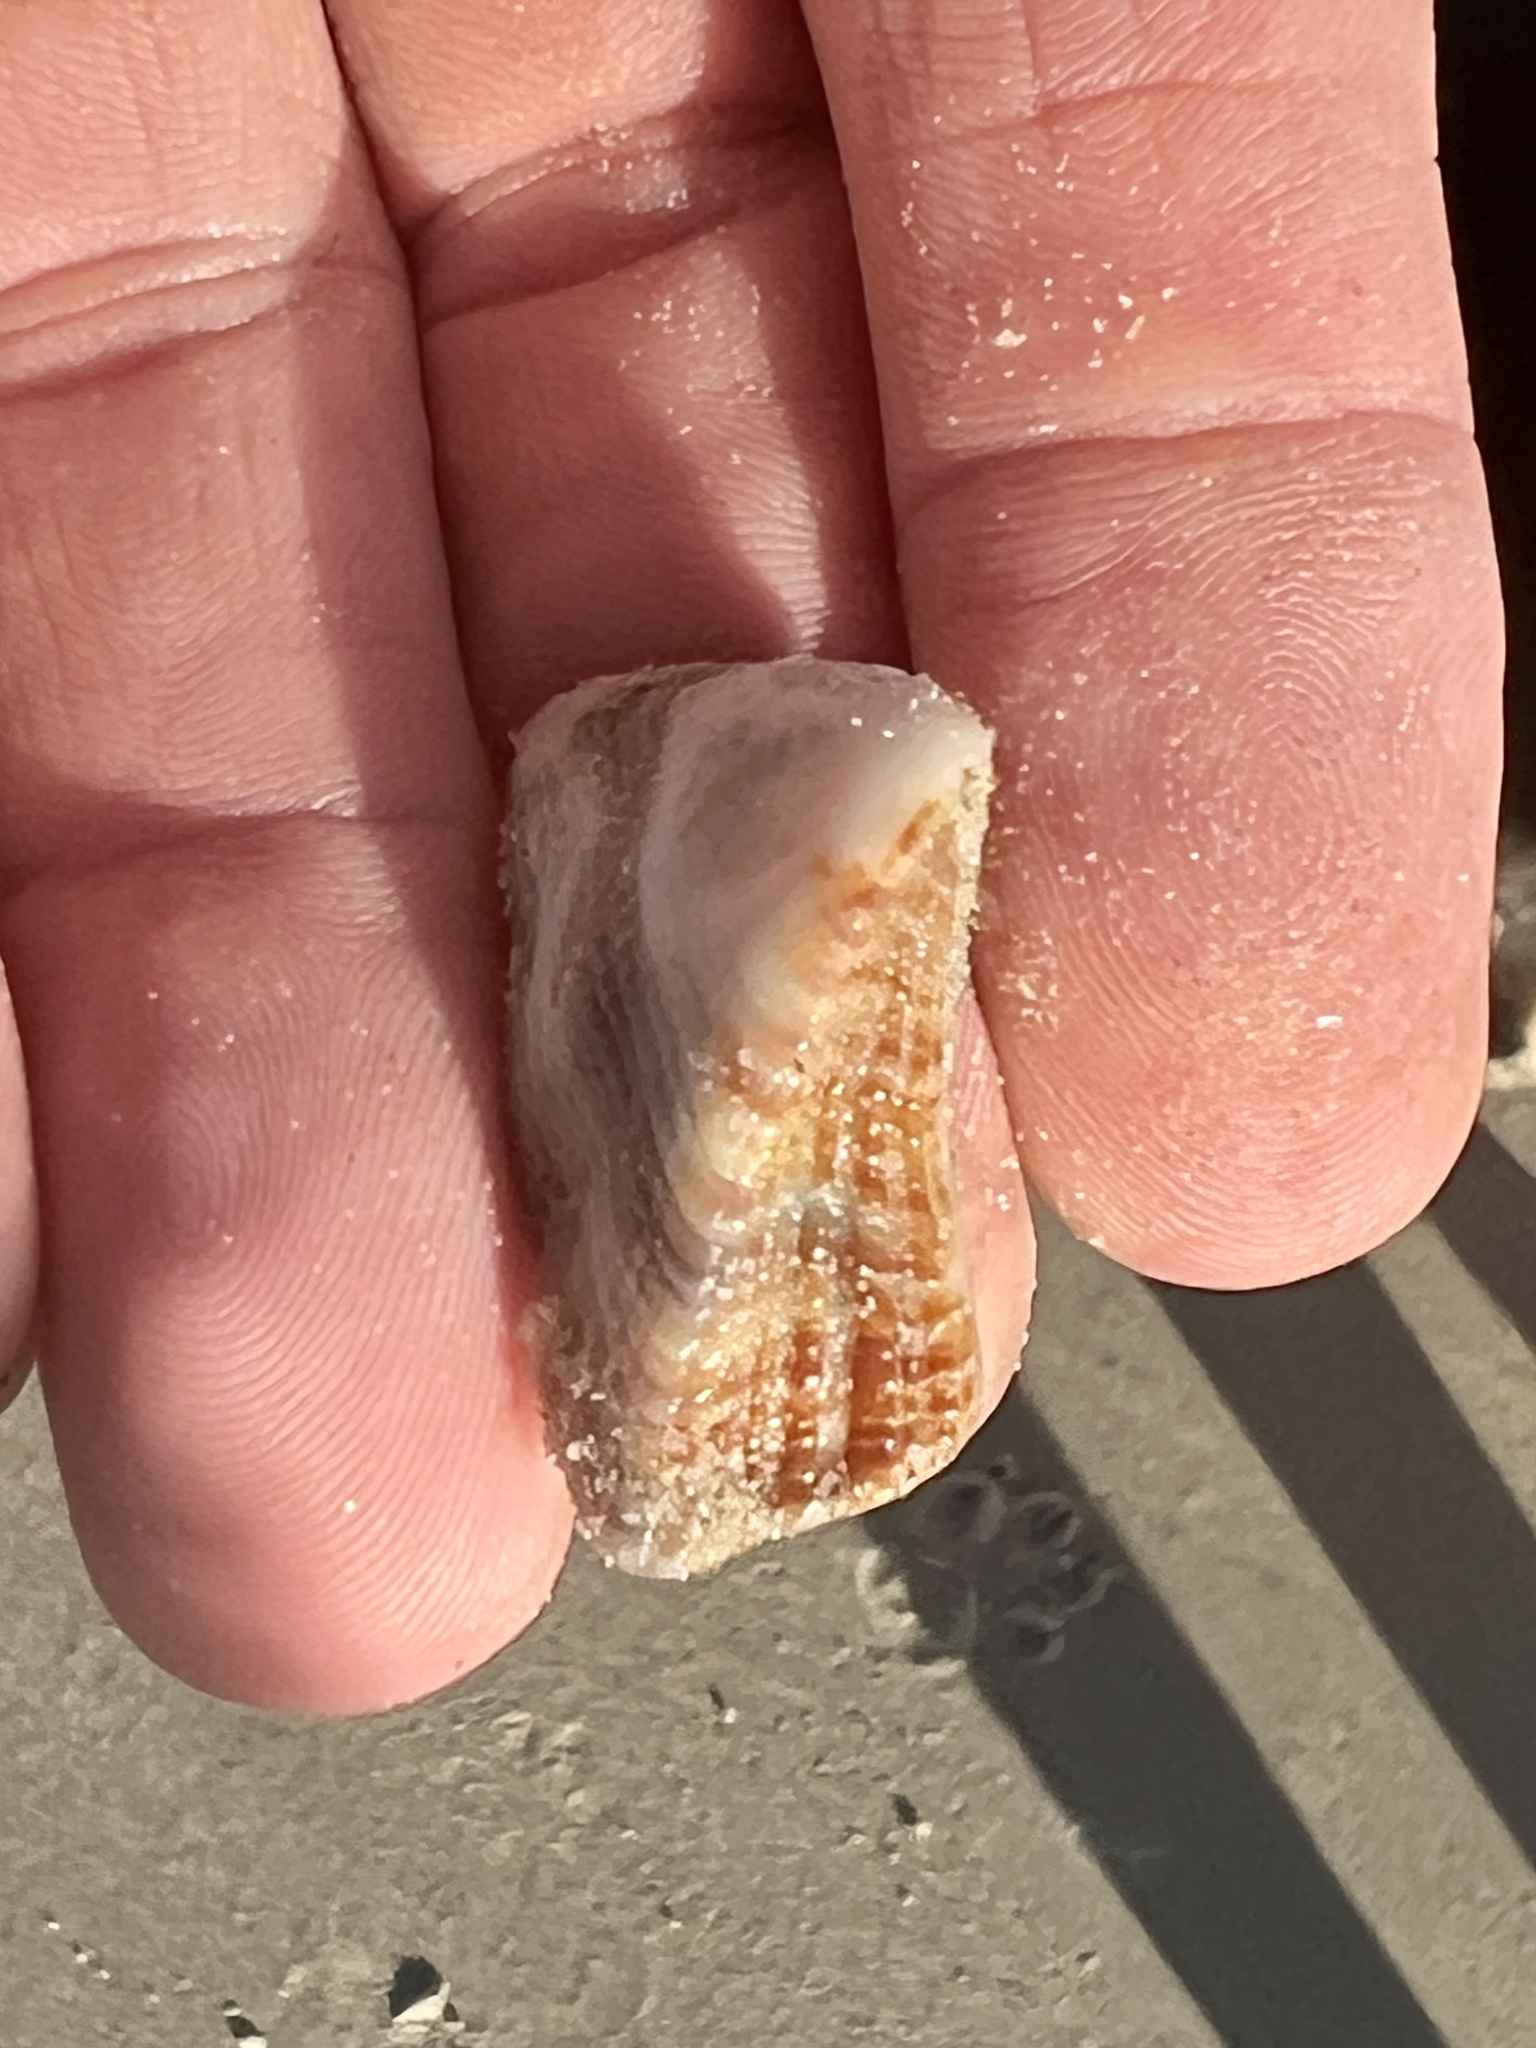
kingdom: Animalia
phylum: Mollusca
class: Bivalvia
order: Arcida
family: Arcidae
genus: Lamarcka
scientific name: Lamarcka imbricata
